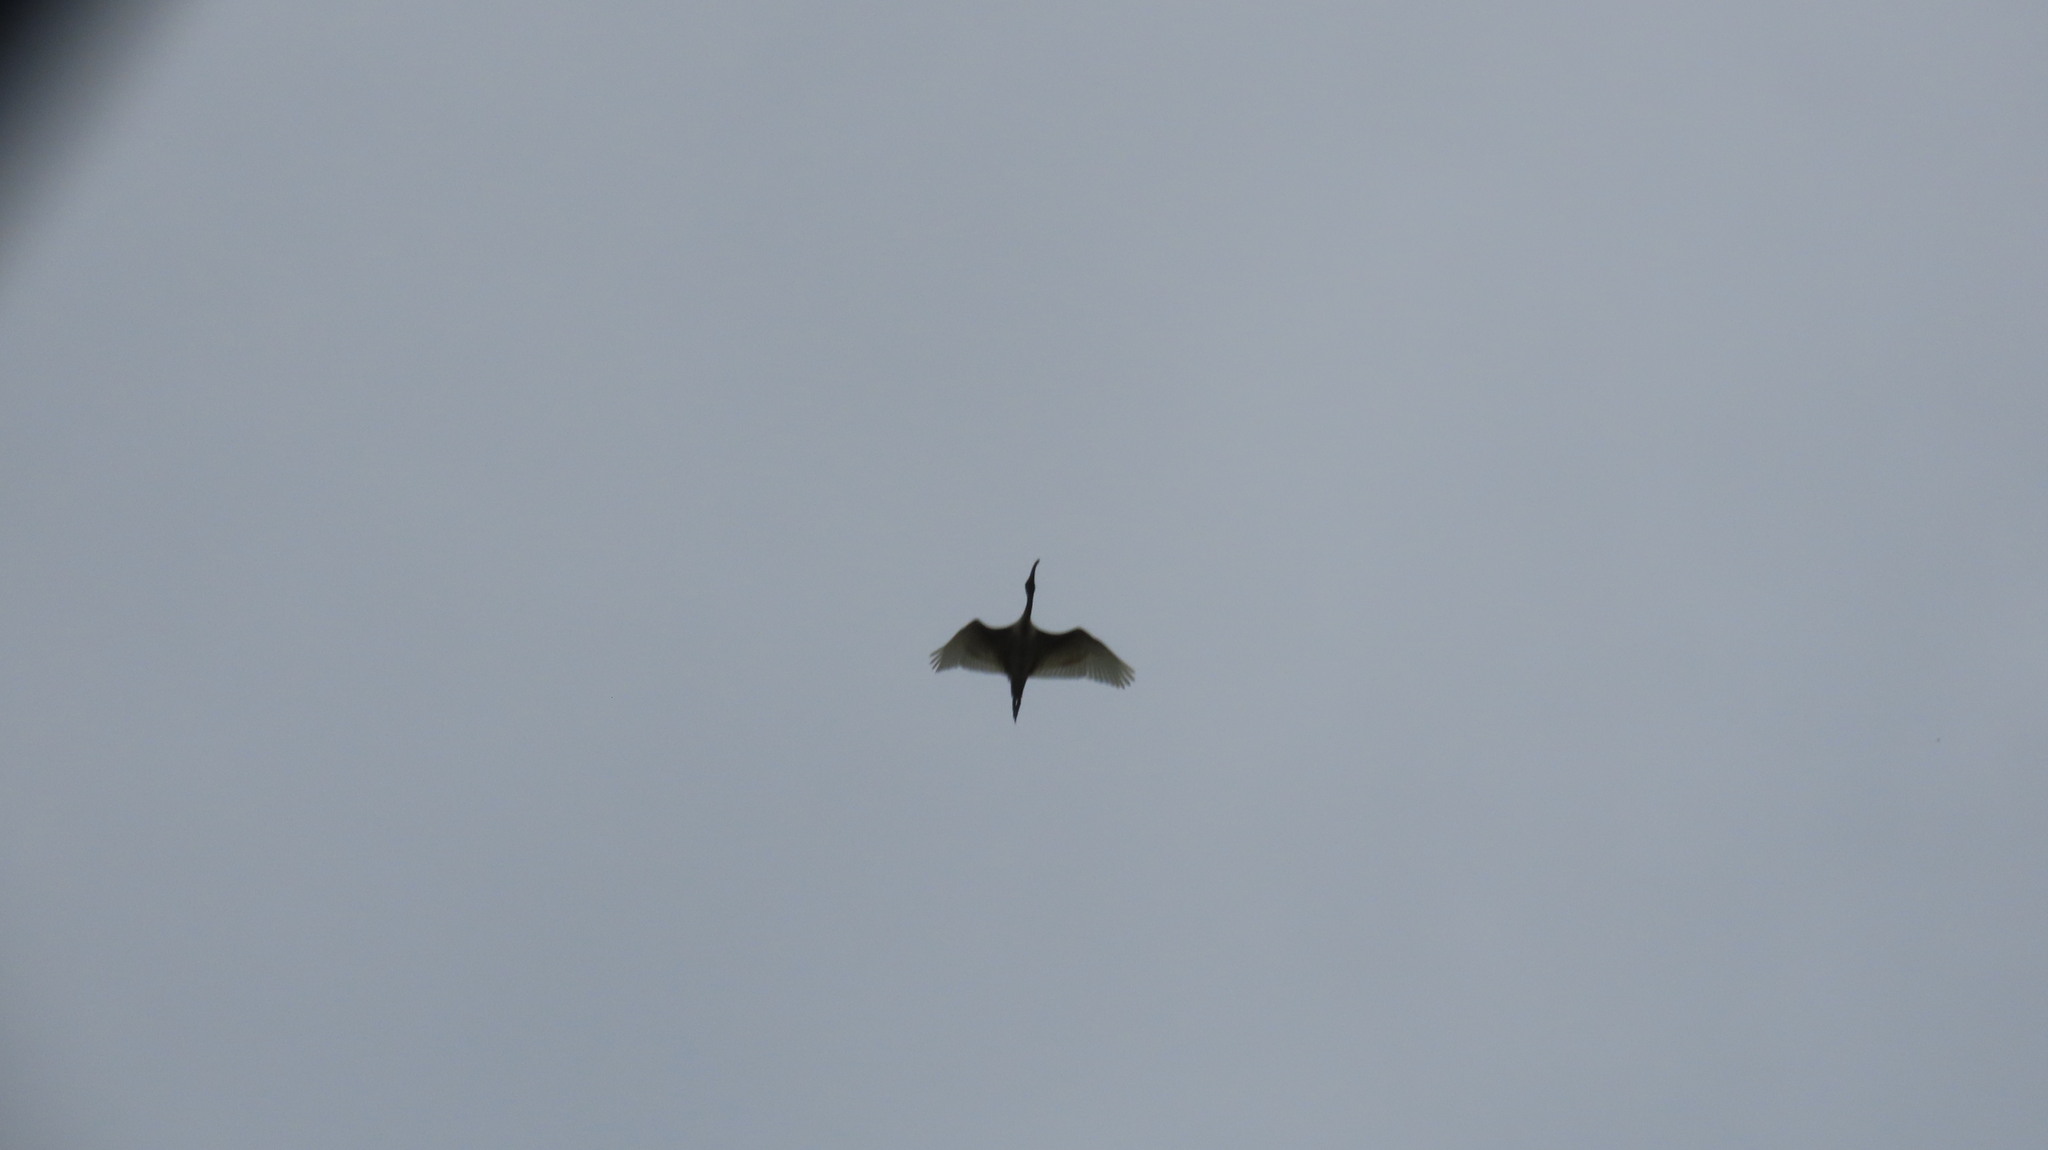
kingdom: Animalia
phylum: Chordata
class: Aves
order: Pelecaniformes
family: Threskiornithidae
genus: Threskiornis
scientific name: Threskiornis melanocephalus
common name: Black-headed ibis
